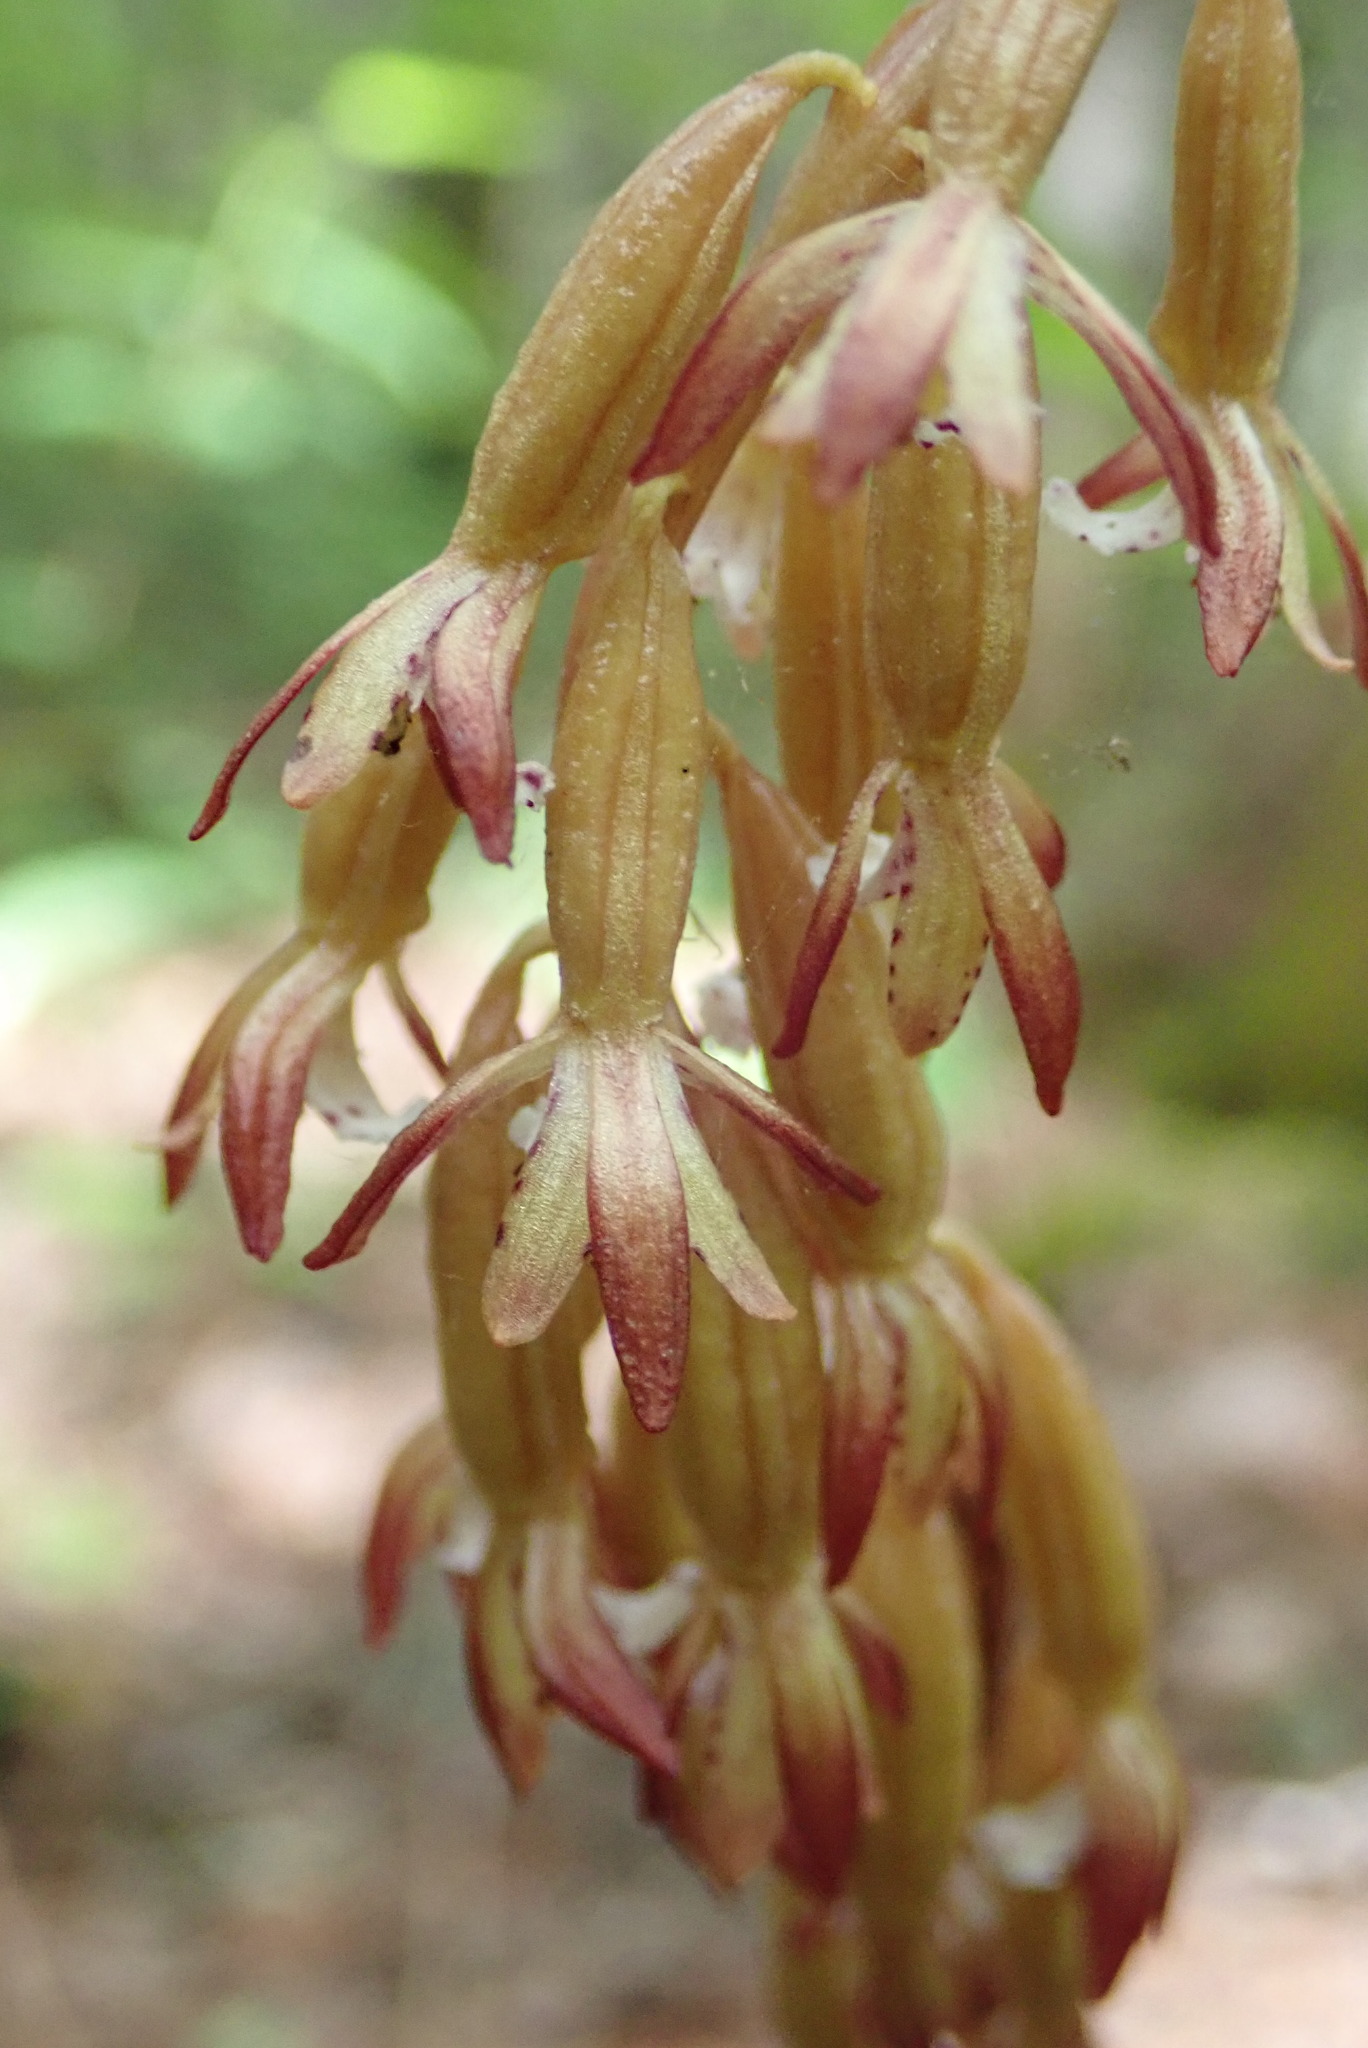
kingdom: Plantae
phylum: Tracheophyta
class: Liliopsida
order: Asparagales
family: Orchidaceae
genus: Corallorhiza
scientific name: Corallorhiza maculata
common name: Spotted coralroot
